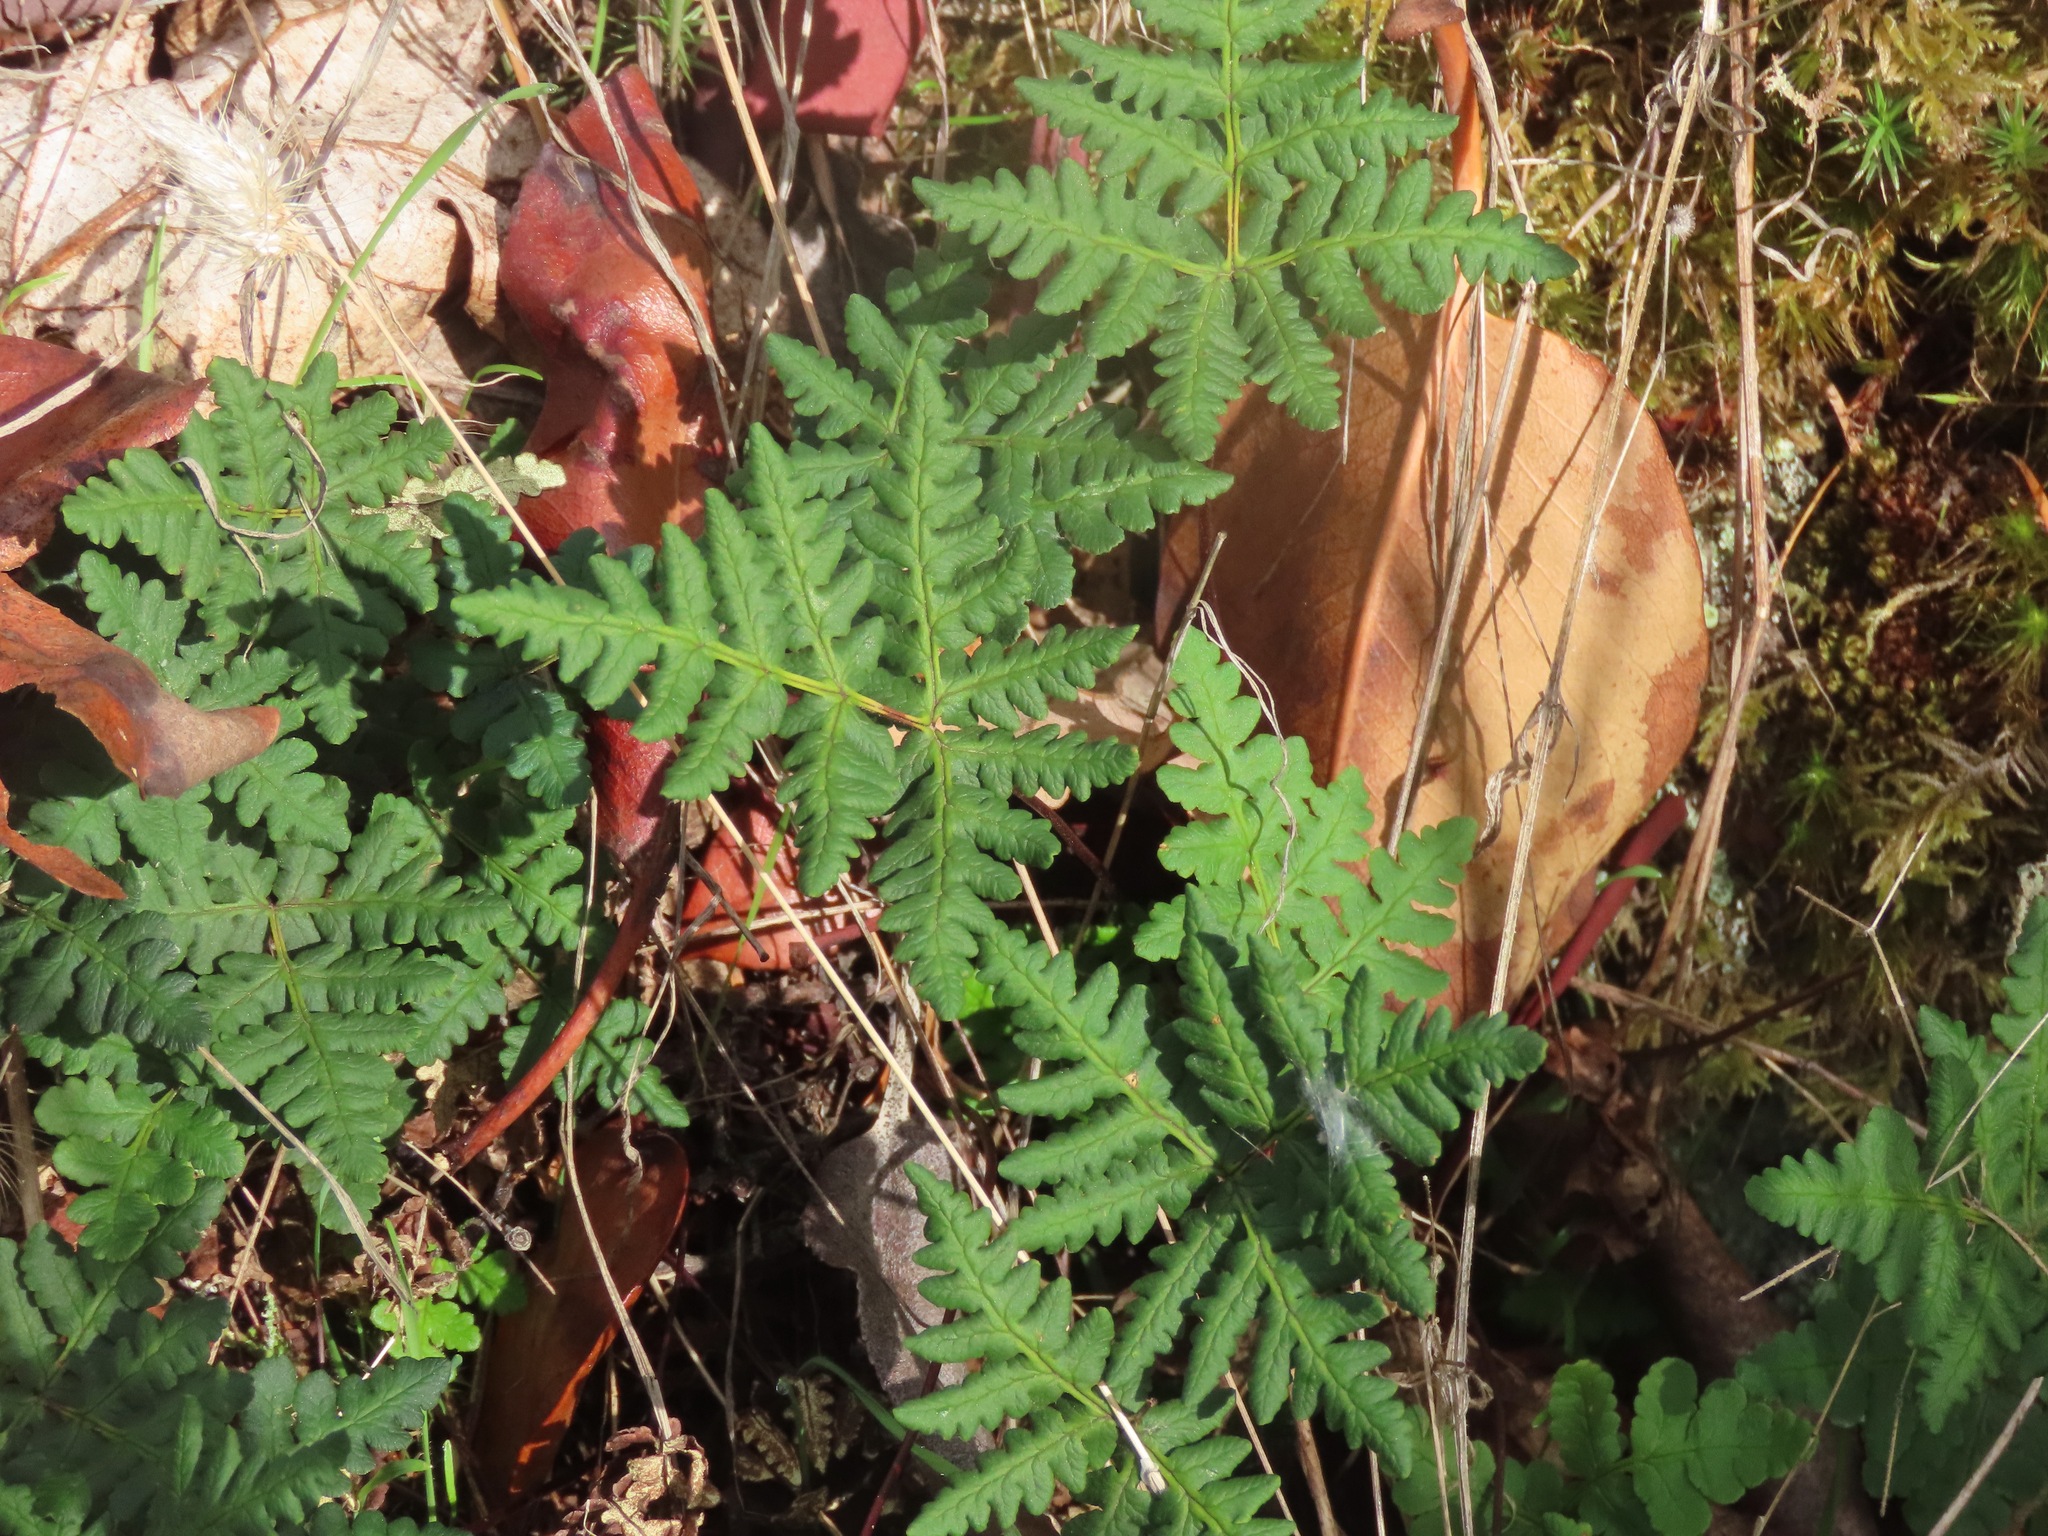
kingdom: Plantae
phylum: Tracheophyta
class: Polypodiopsida
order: Polypodiales
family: Pteridaceae
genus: Pentagramma
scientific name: Pentagramma triangularis
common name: Gold fern
